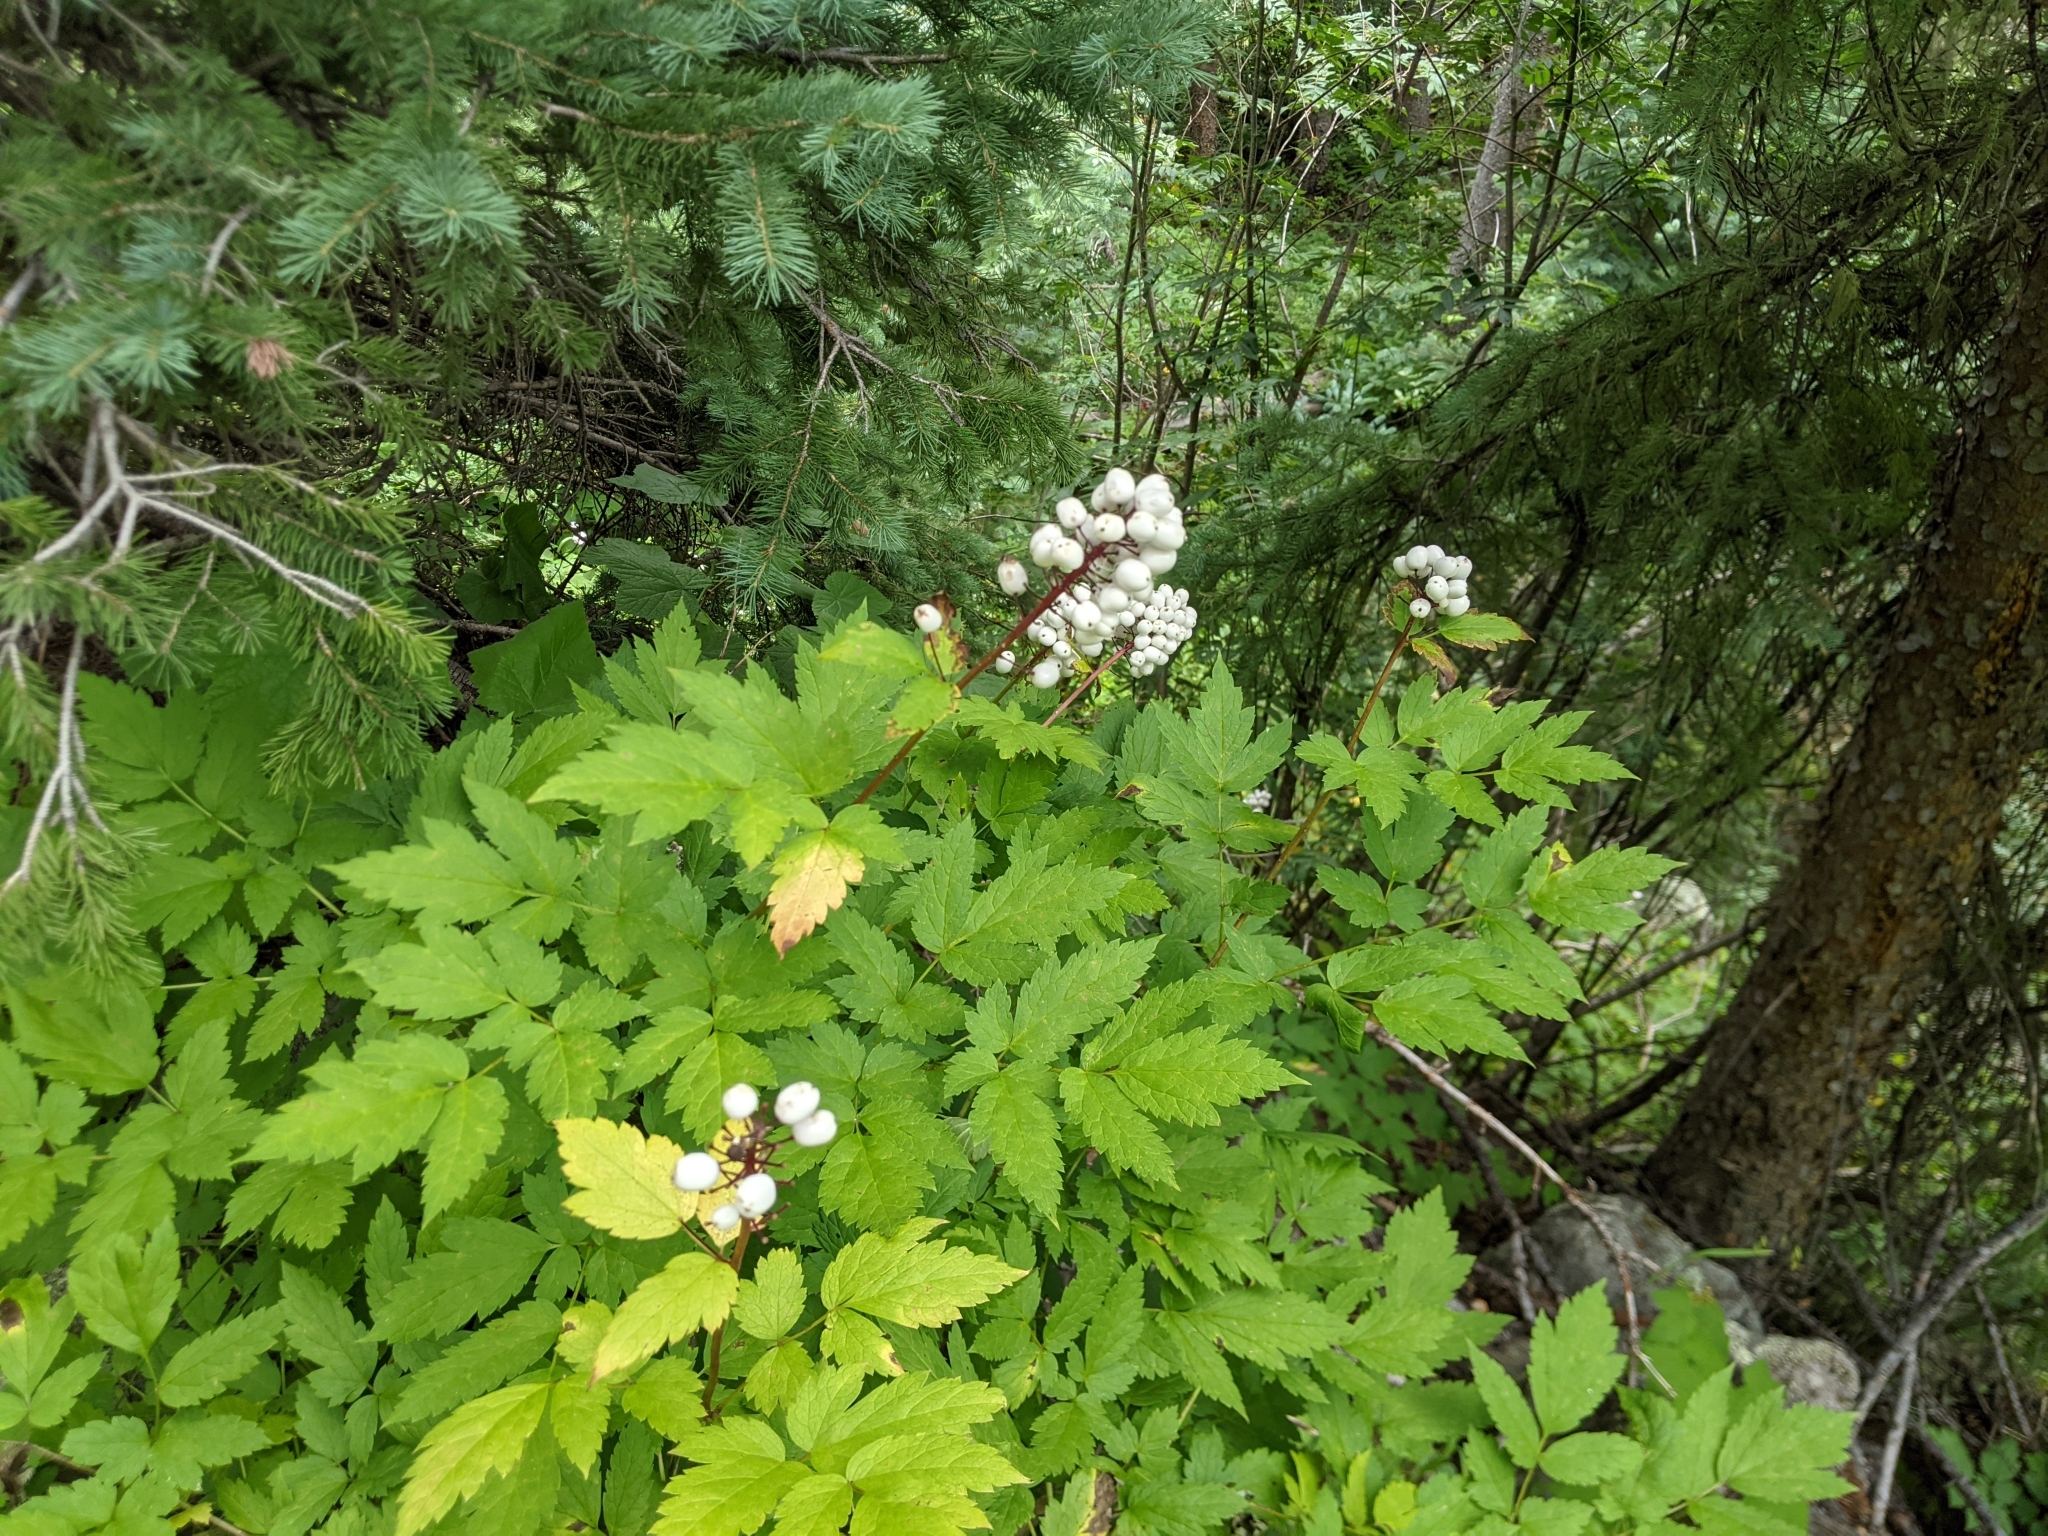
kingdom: Plantae
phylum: Tracheophyta
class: Magnoliopsida
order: Ranunculales
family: Ranunculaceae
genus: Actaea
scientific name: Actaea rubra
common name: Red baneberry
